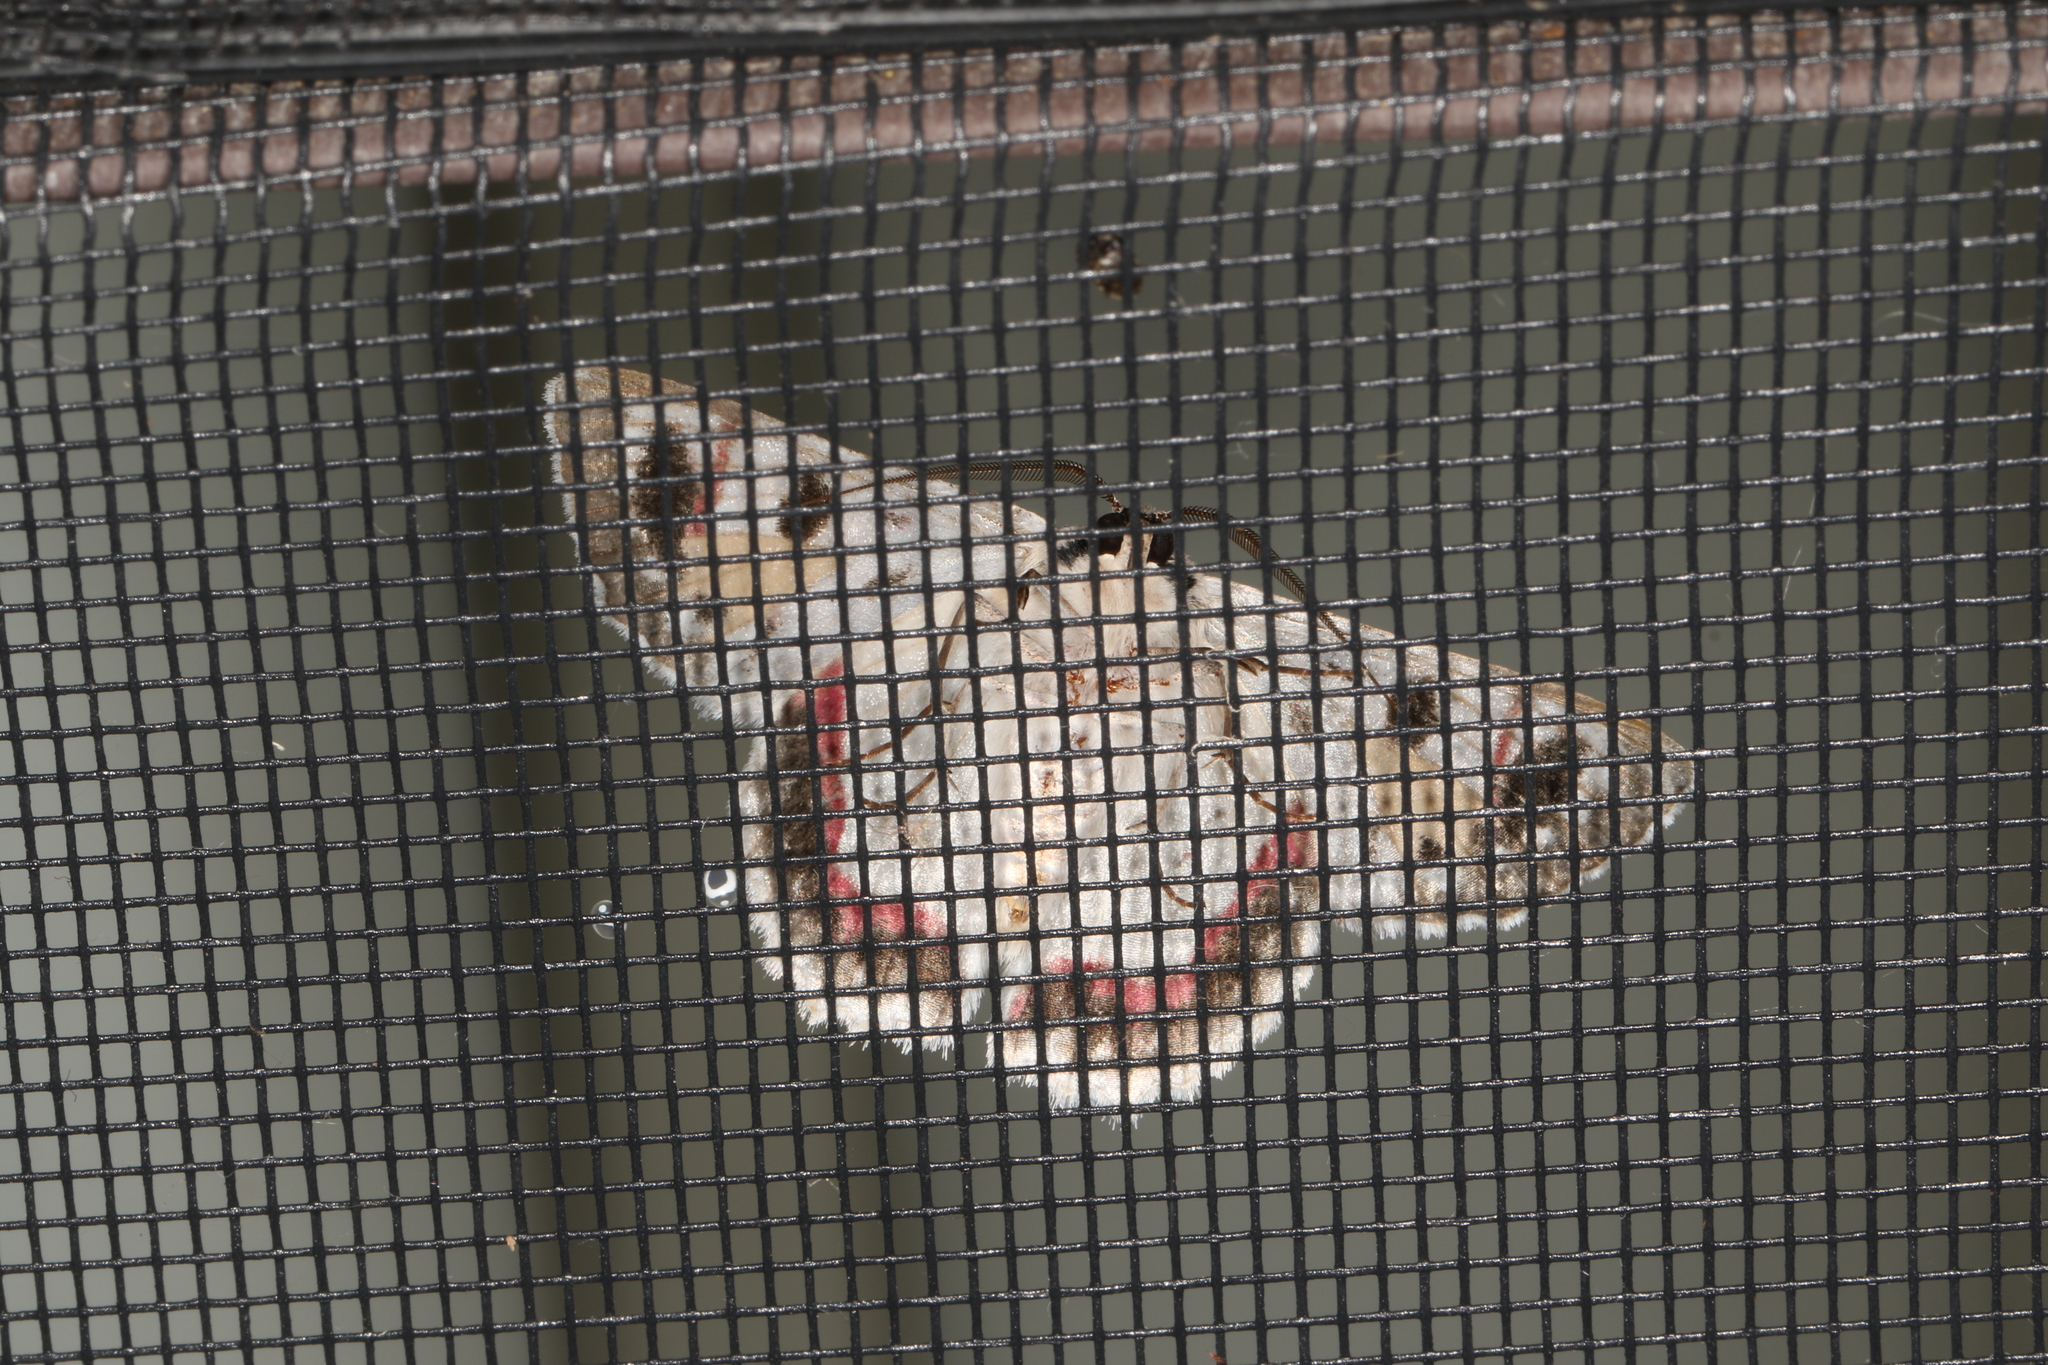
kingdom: Animalia
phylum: Arthropoda
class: Insecta
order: Lepidoptera
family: Geometridae
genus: Crypsiphona
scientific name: Crypsiphona ocultaria
